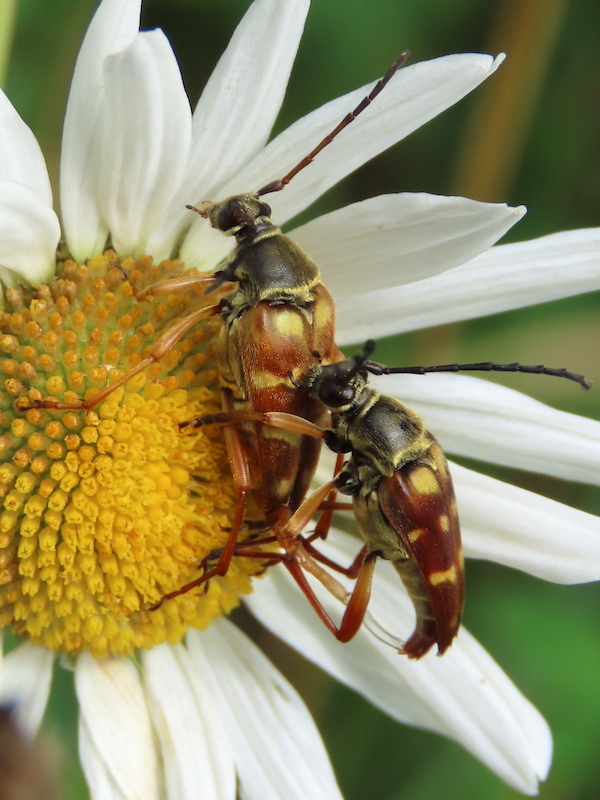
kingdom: Animalia
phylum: Arthropoda
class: Insecta
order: Coleoptera
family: Cerambycidae
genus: Typocerus
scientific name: Typocerus velutinus
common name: Banded longhorn beetle
